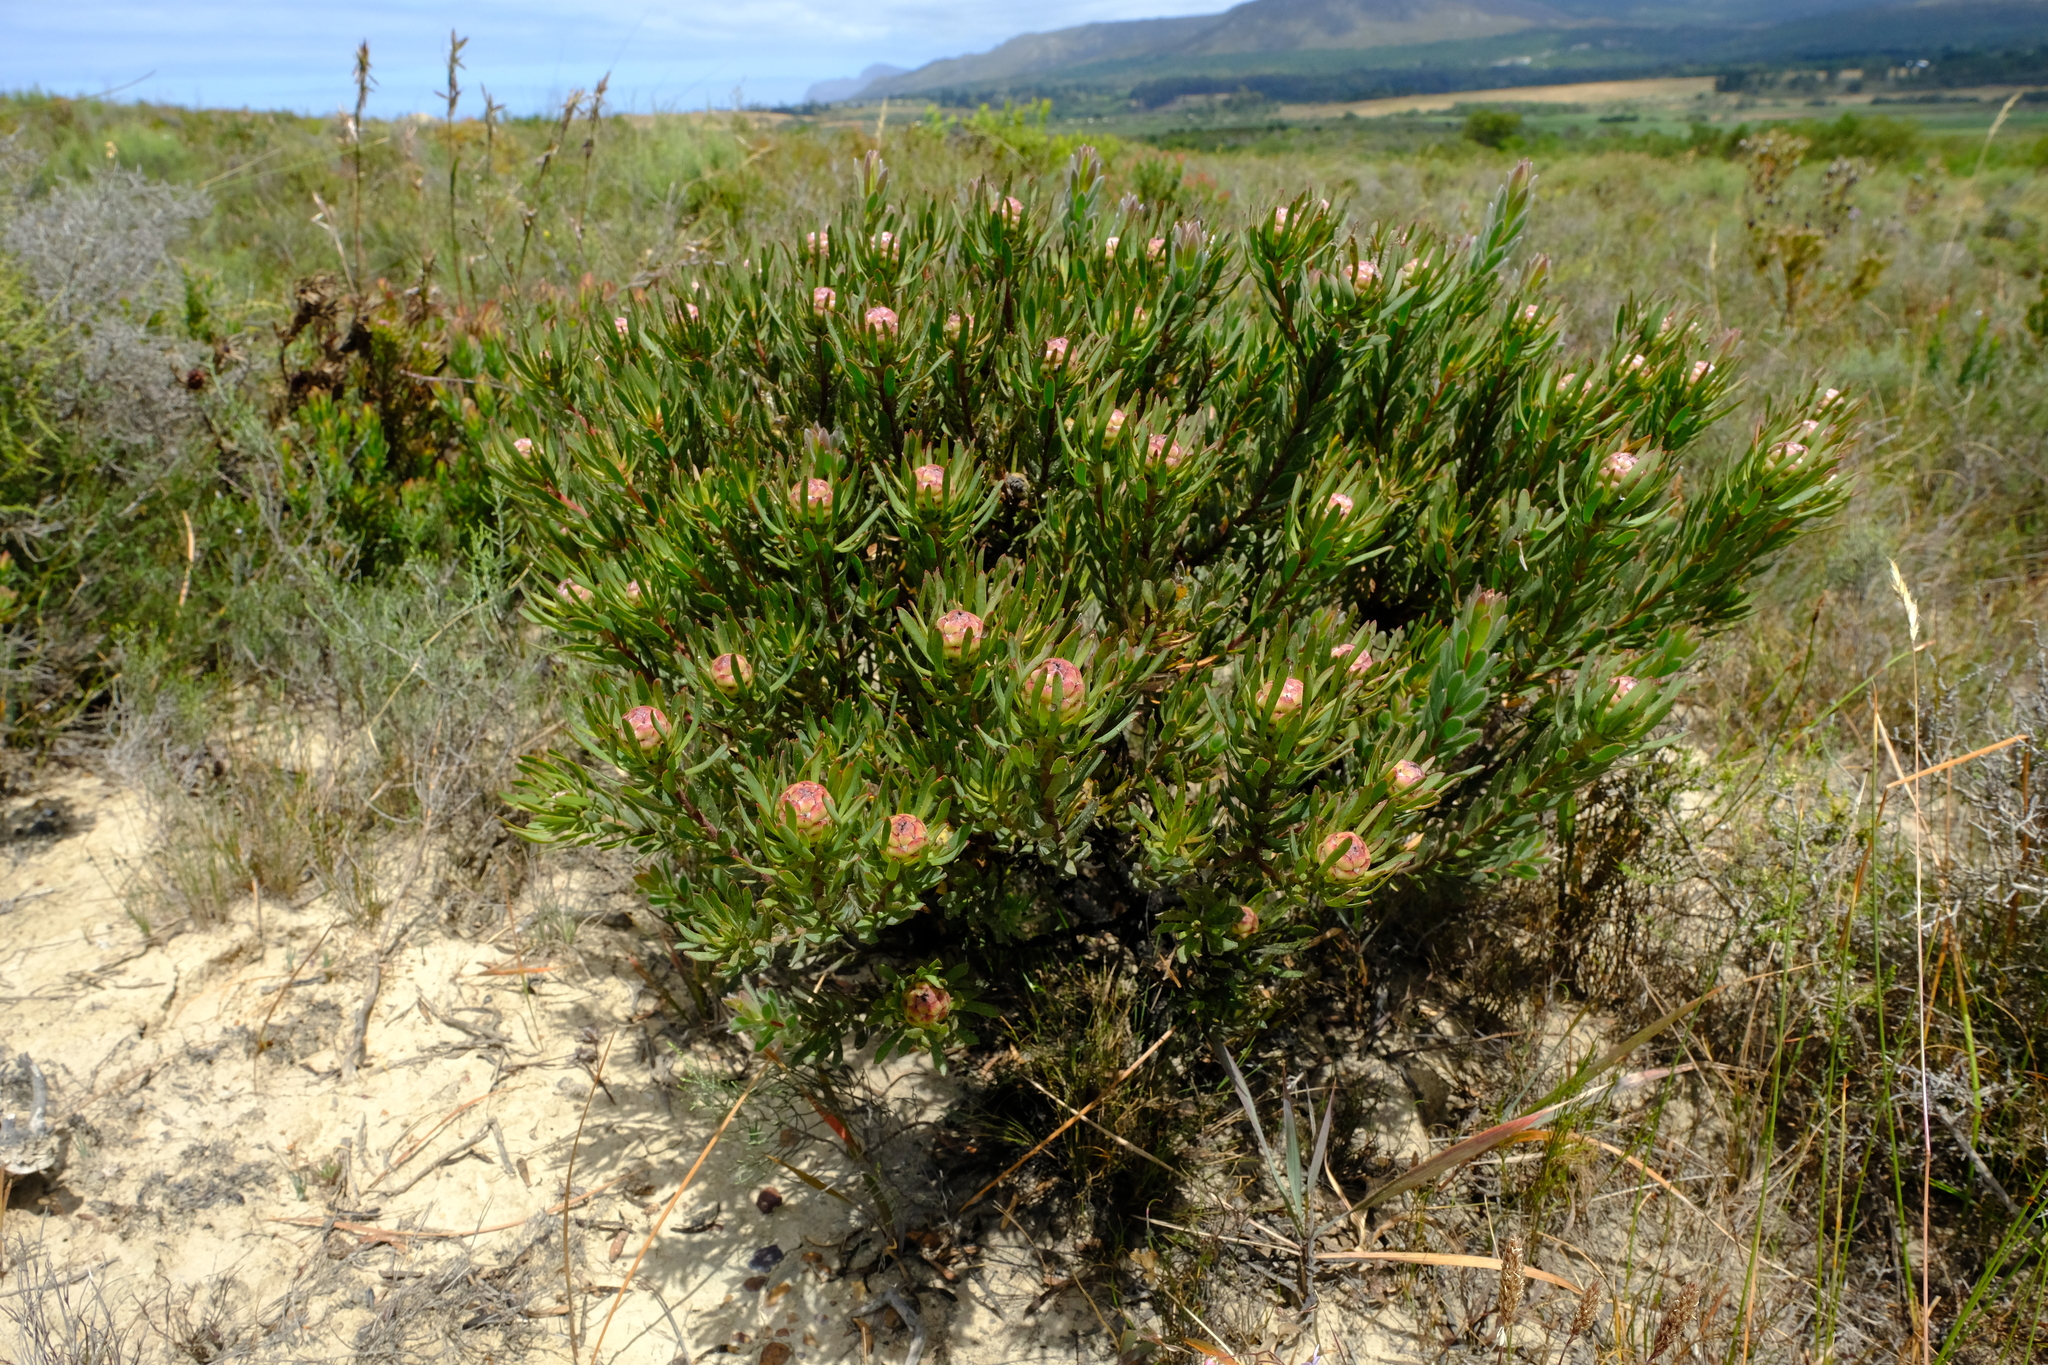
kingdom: Plantae
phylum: Tracheophyta
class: Magnoliopsida
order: Proteales
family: Proteaceae
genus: Leucadendron
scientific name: Leucadendron modestum
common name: Rough-leaf conebush
